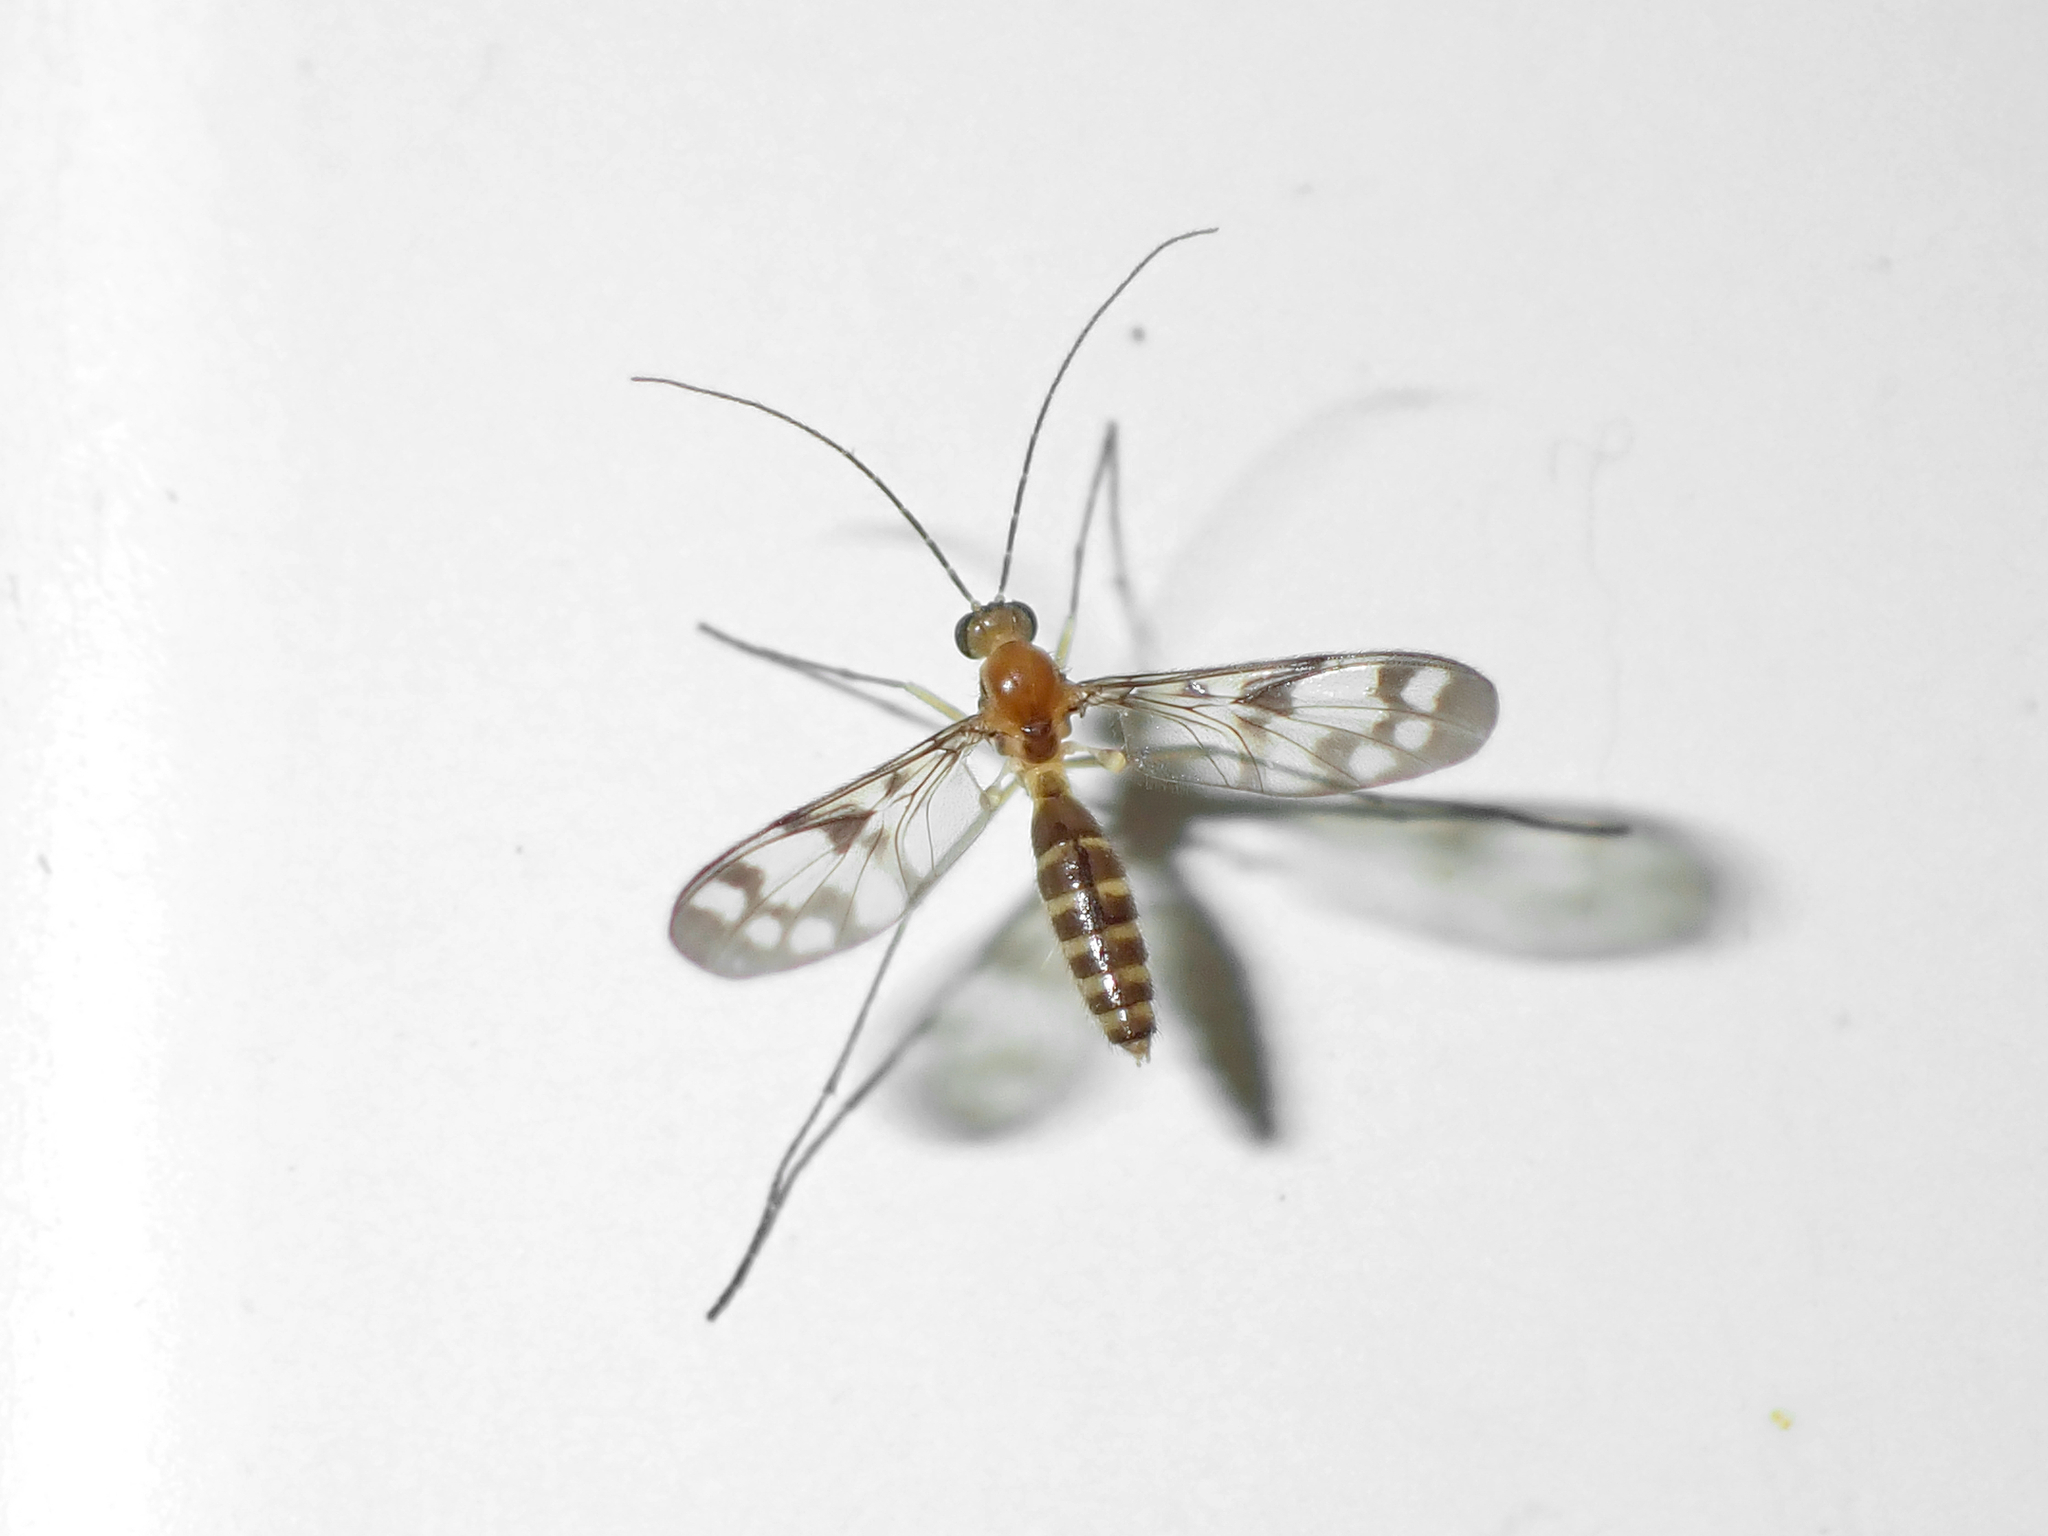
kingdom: Animalia
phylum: Arthropoda
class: Insecta
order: Diptera
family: Keroplatidae
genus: Chiasmoneura
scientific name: Chiasmoneura fenestrata
